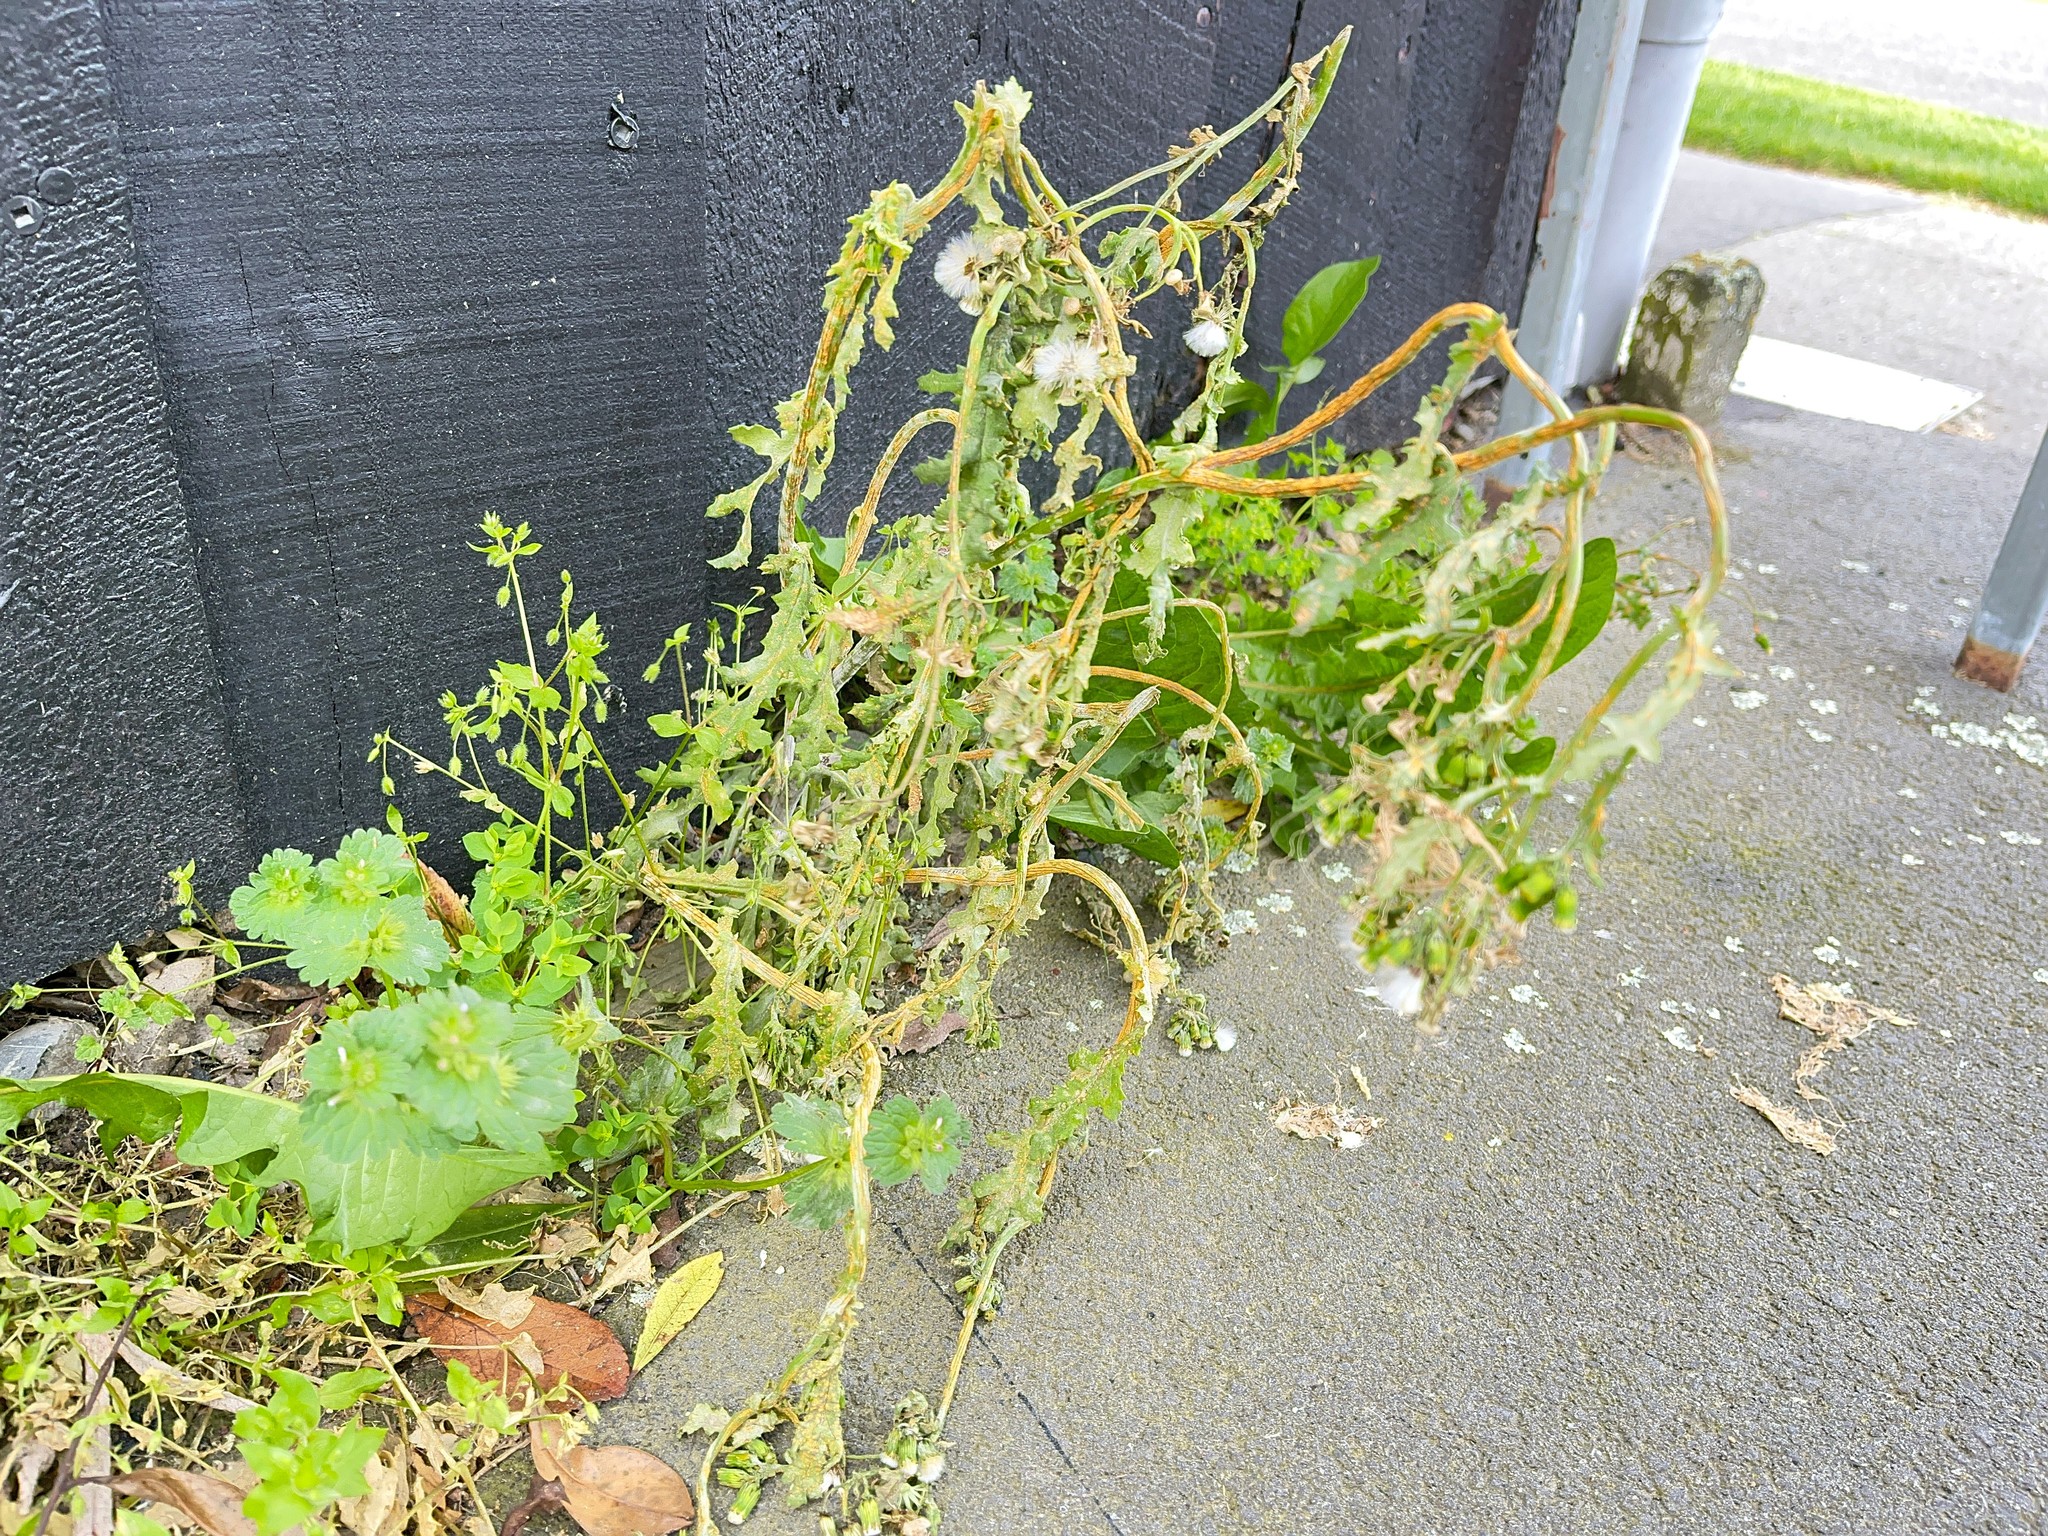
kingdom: Fungi
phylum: Basidiomycota
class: Pucciniomycetes
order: Pucciniales
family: Pucciniaceae
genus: Puccinia
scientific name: Puccinia lagenophorae
